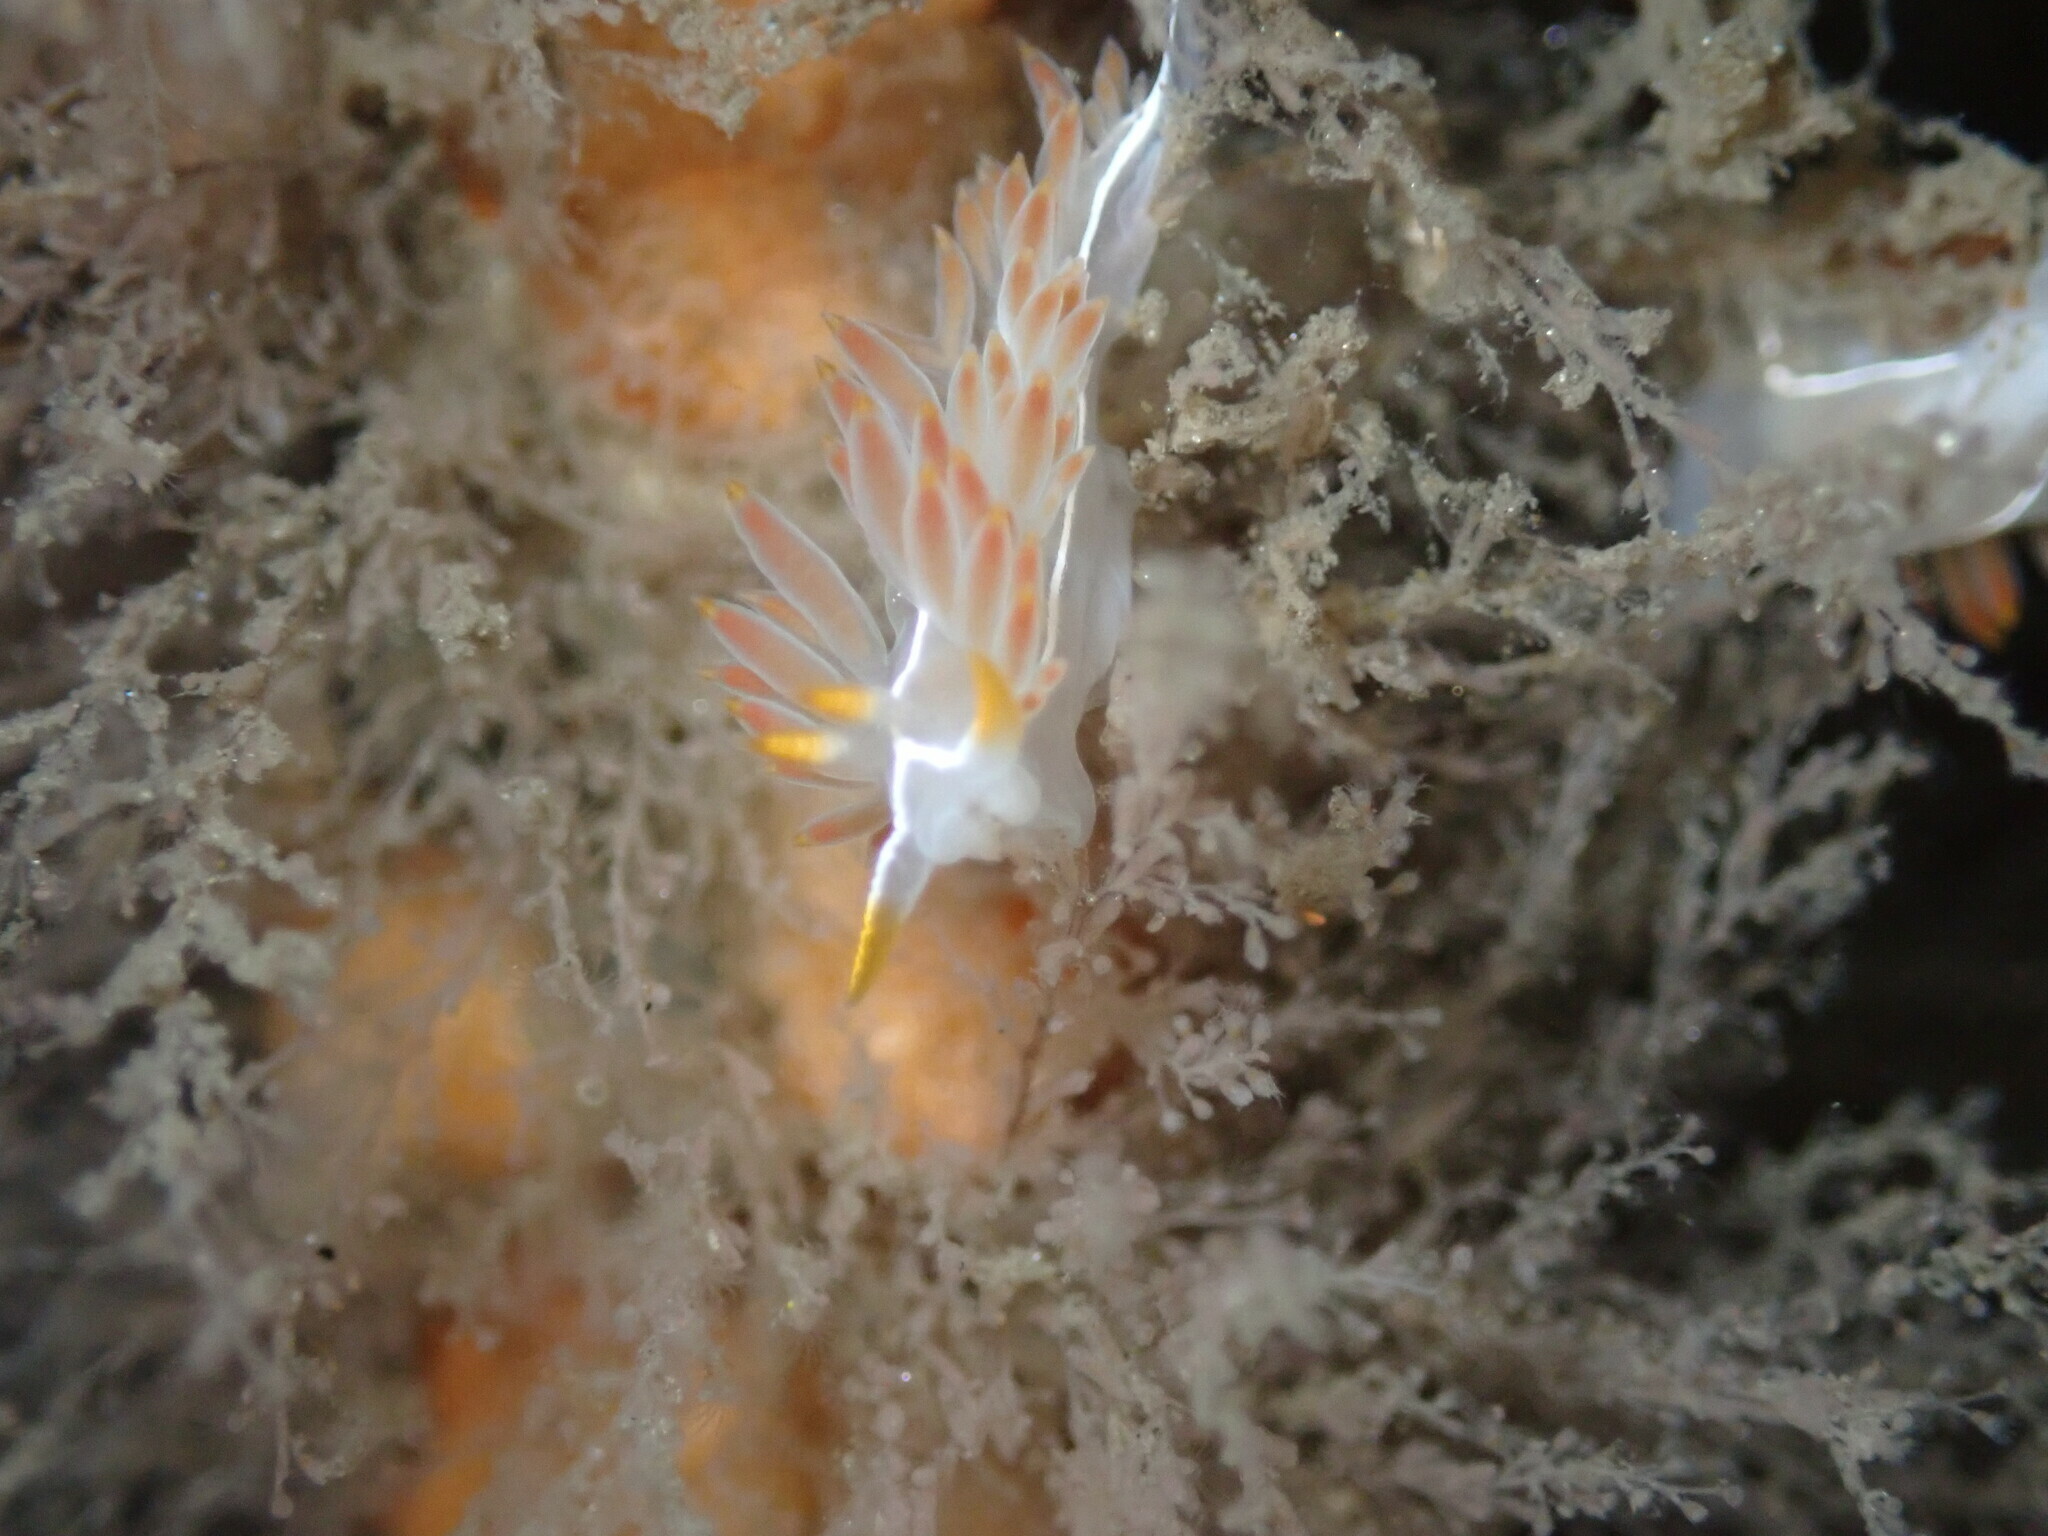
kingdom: Animalia
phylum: Mollusca
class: Gastropoda
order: Nudibranchia
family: Coryphellidae
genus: Coryphella
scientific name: Coryphella trilineata
